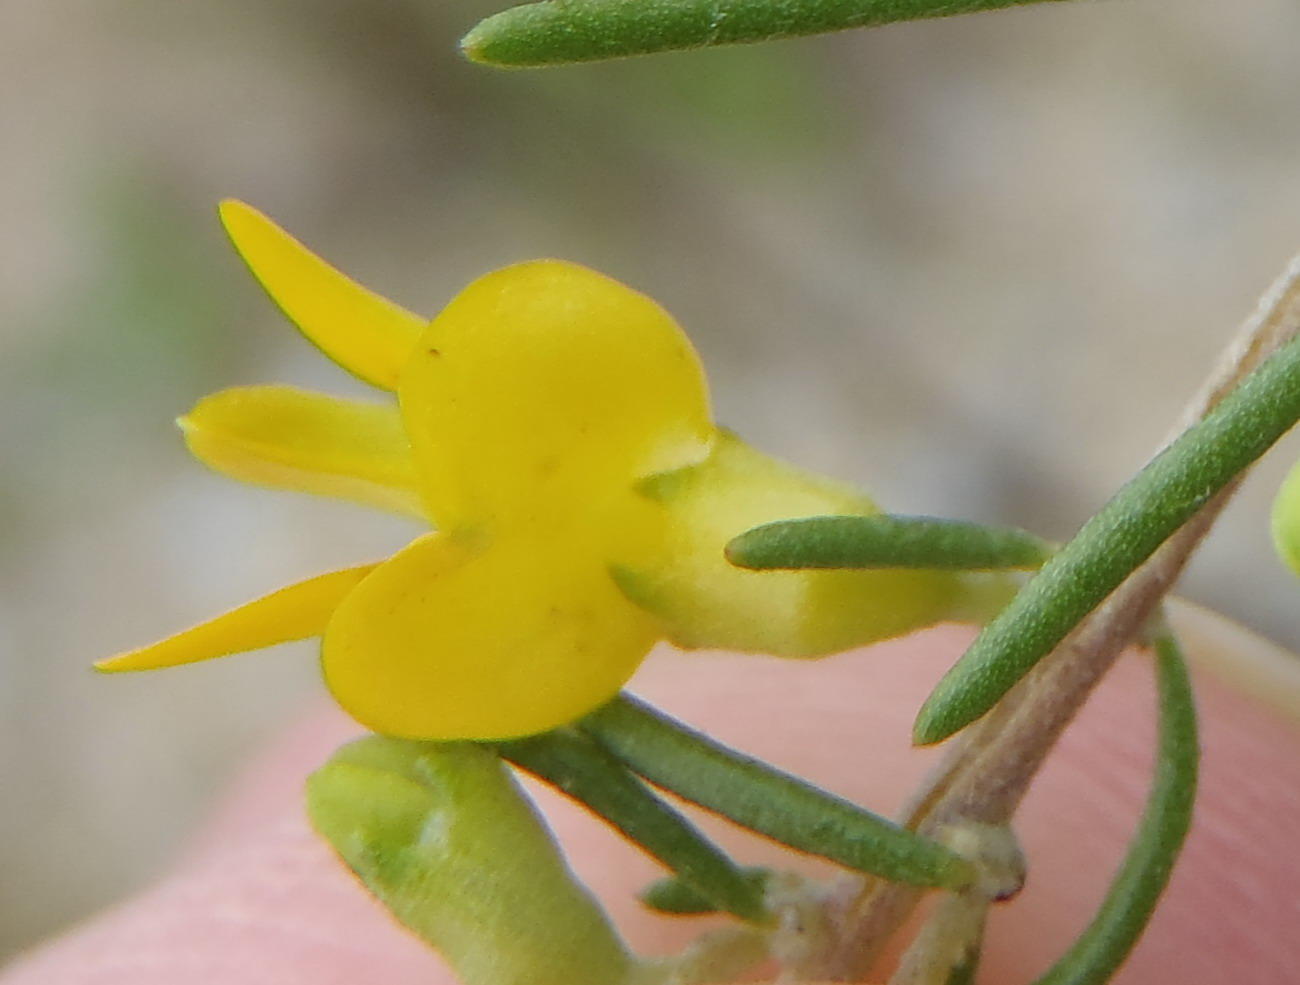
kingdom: Plantae
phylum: Tracheophyta
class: Magnoliopsida
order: Fabales
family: Fabaceae
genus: Aspalathus
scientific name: Aspalathus spinosa
